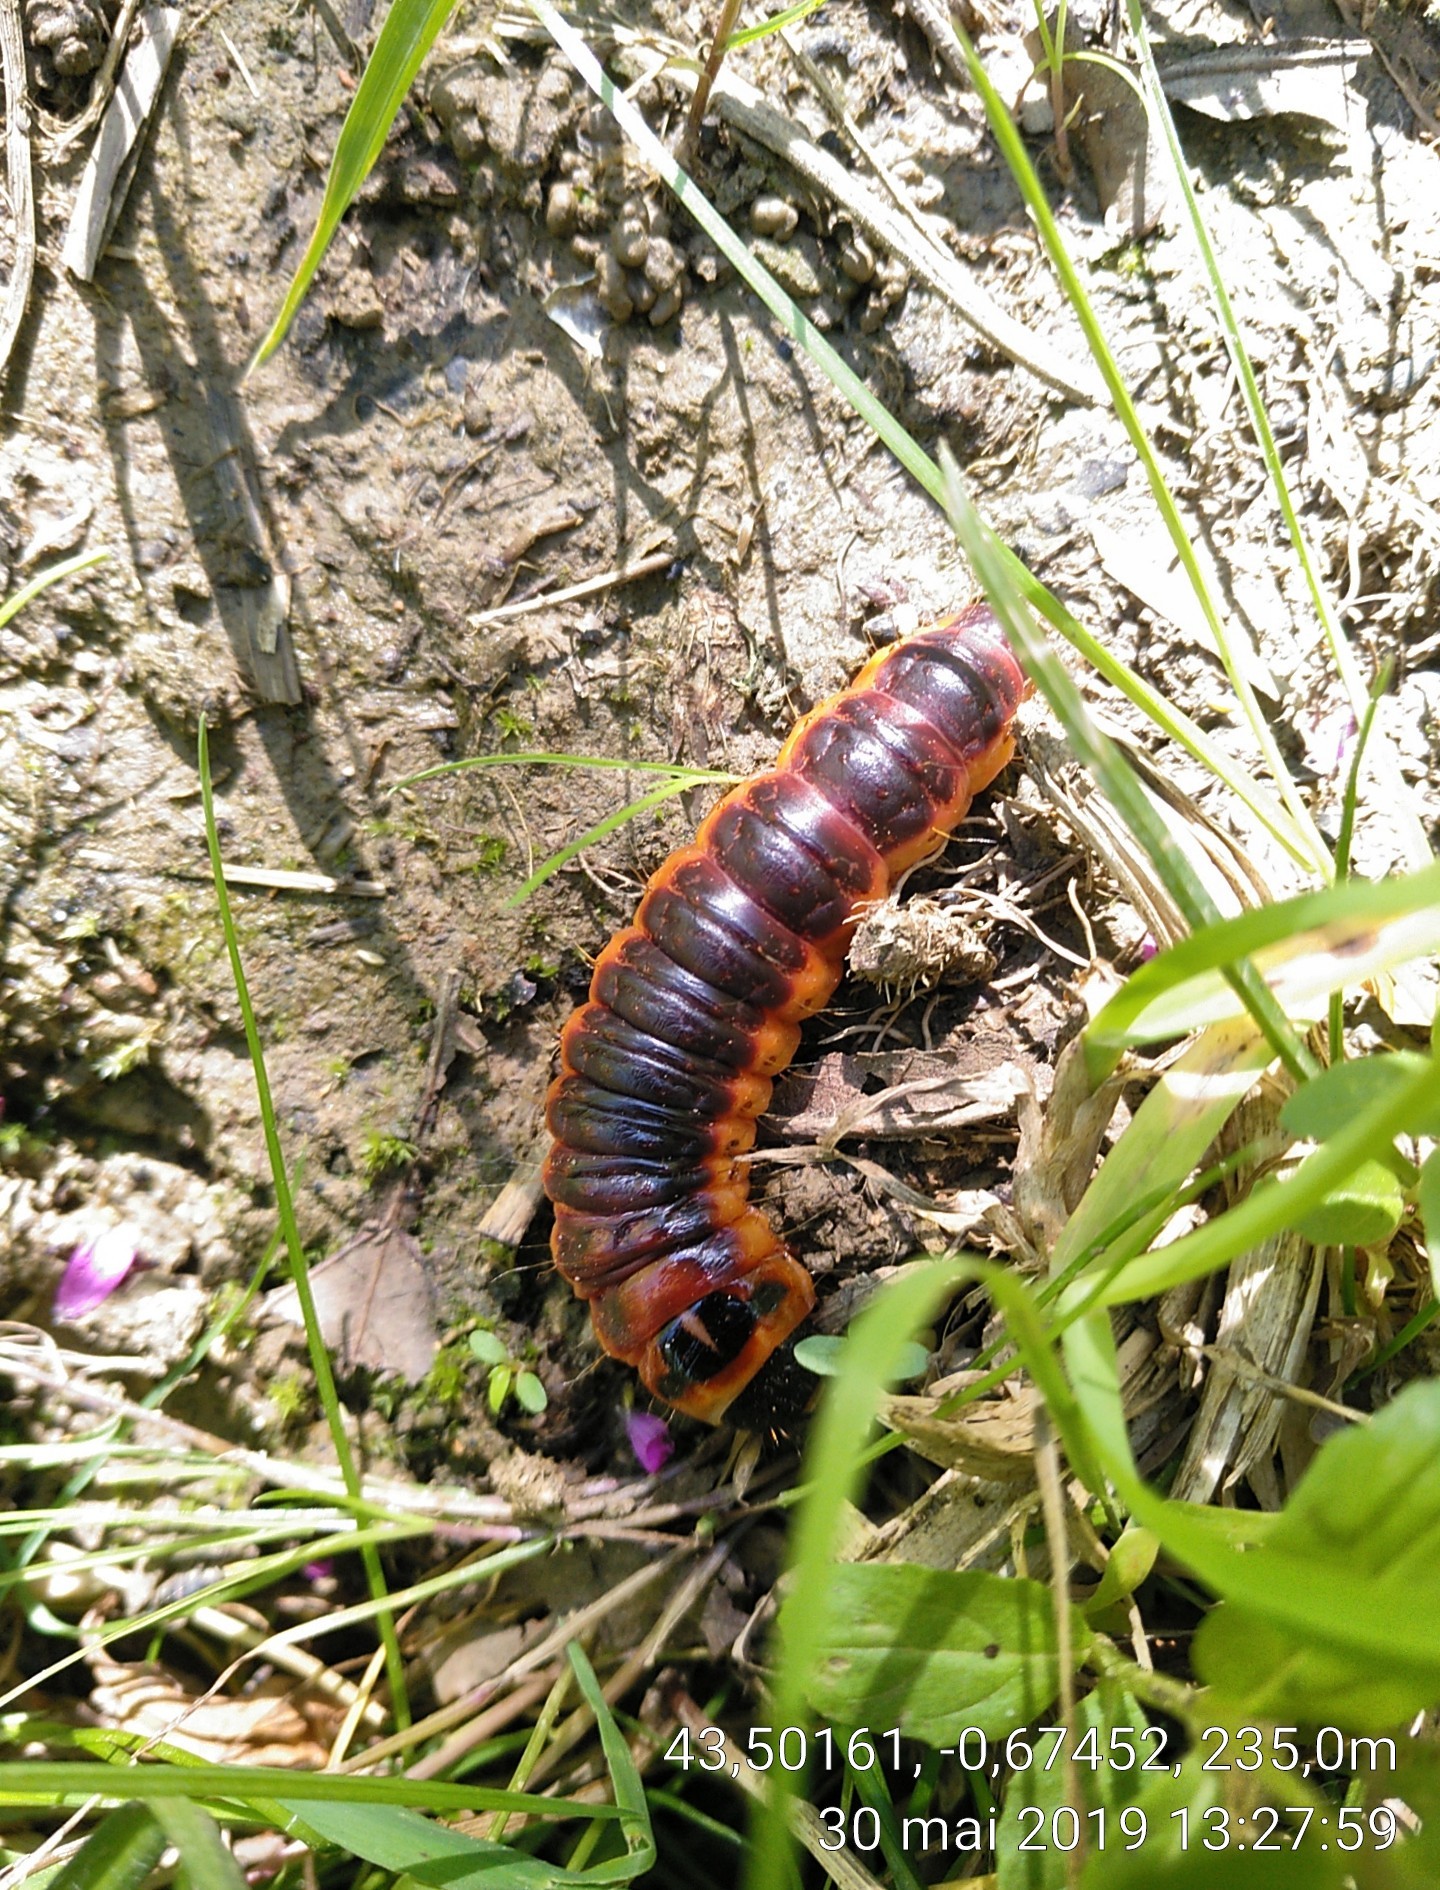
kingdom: Animalia
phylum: Arthropoda
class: Insecta
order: Lepidoptera
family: Cossidae
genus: Cossus
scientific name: Cossus cossus
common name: Goat moth
